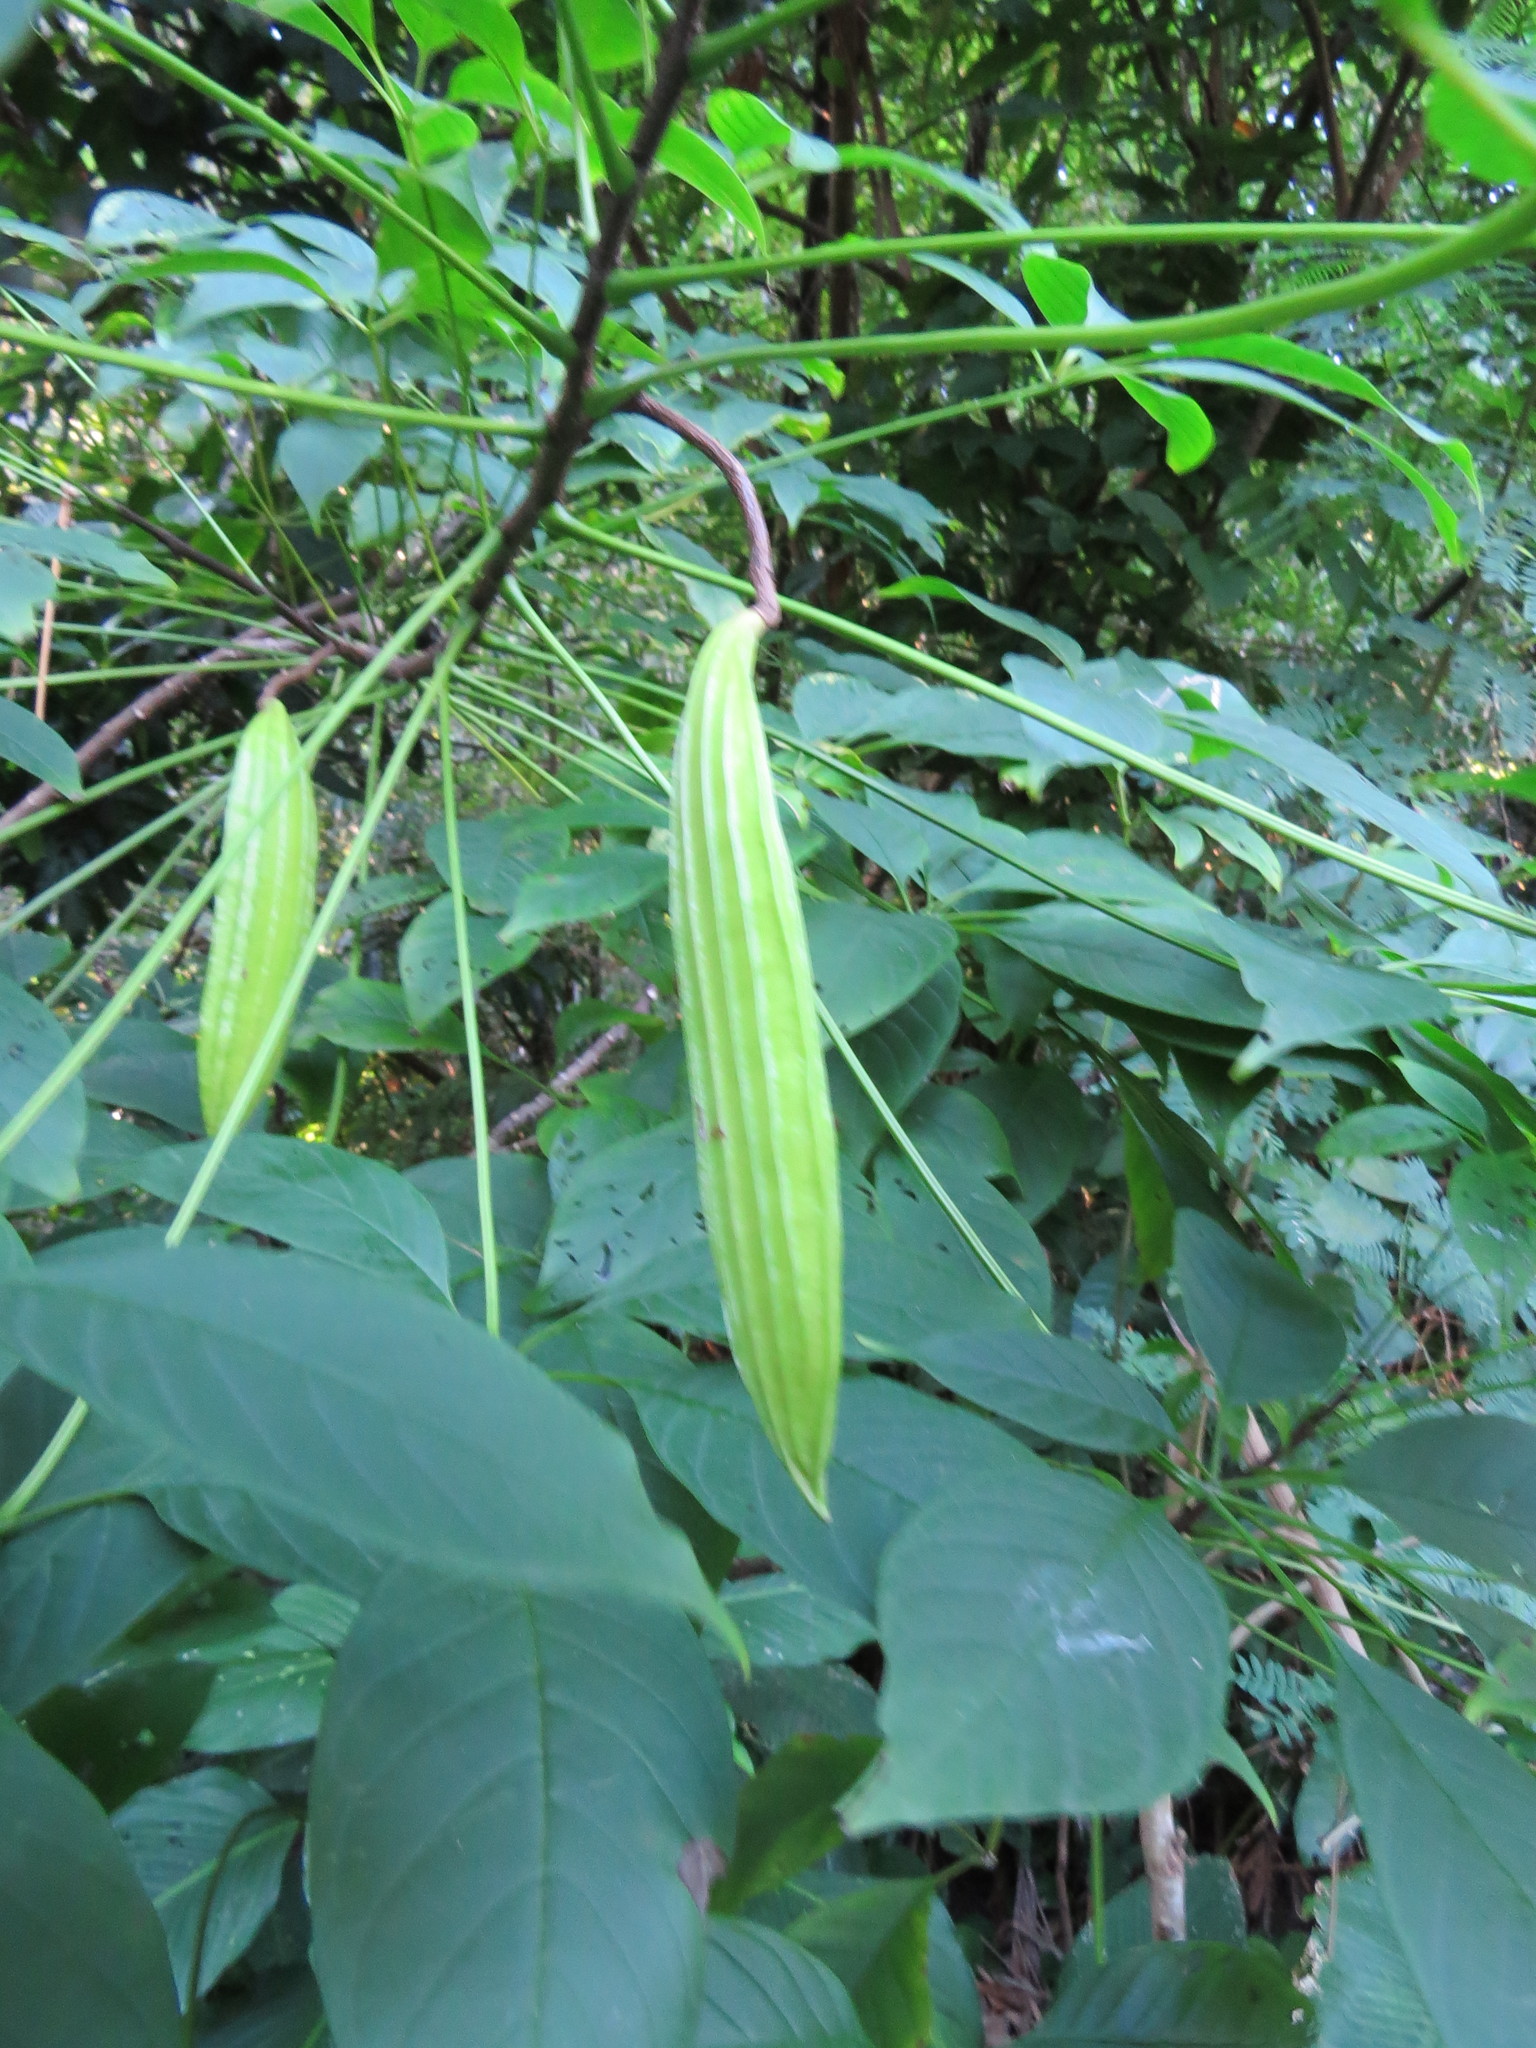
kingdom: Plantae
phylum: Tracheophyta
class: Magnoliopsida
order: Lamiales
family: Bignoniaceae
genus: Cybistax
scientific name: Cybistax antisyphilitica
